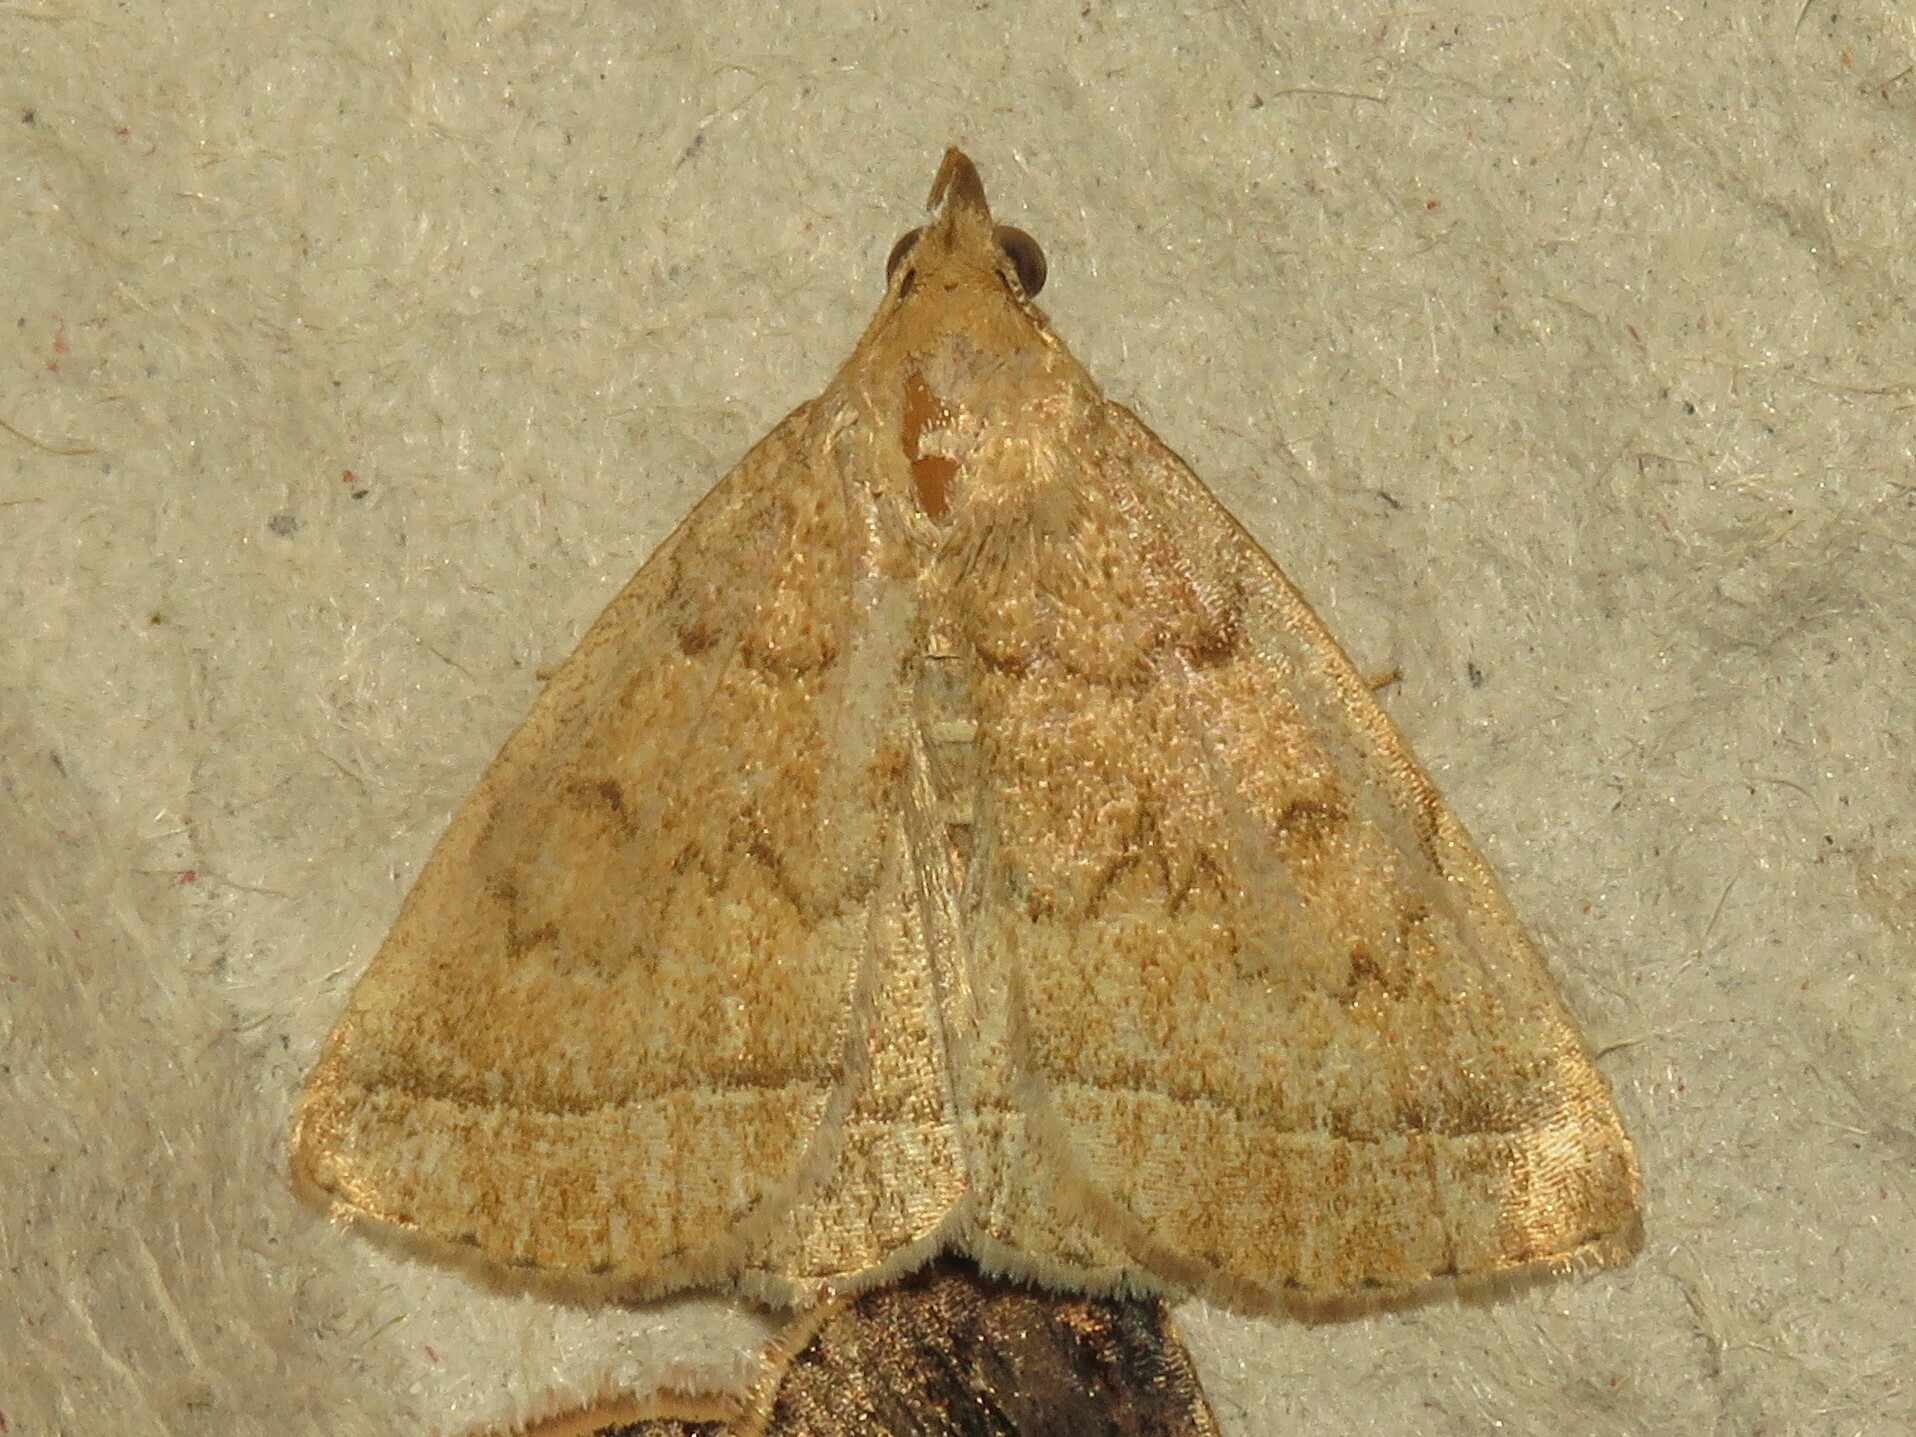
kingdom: Animalia
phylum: Arthropoda
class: Insecta
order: Lepidoptera
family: Erebidae
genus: Zanclognatha
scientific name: Zanclognatha jacchusalis
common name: Yellowish zanclognatha
